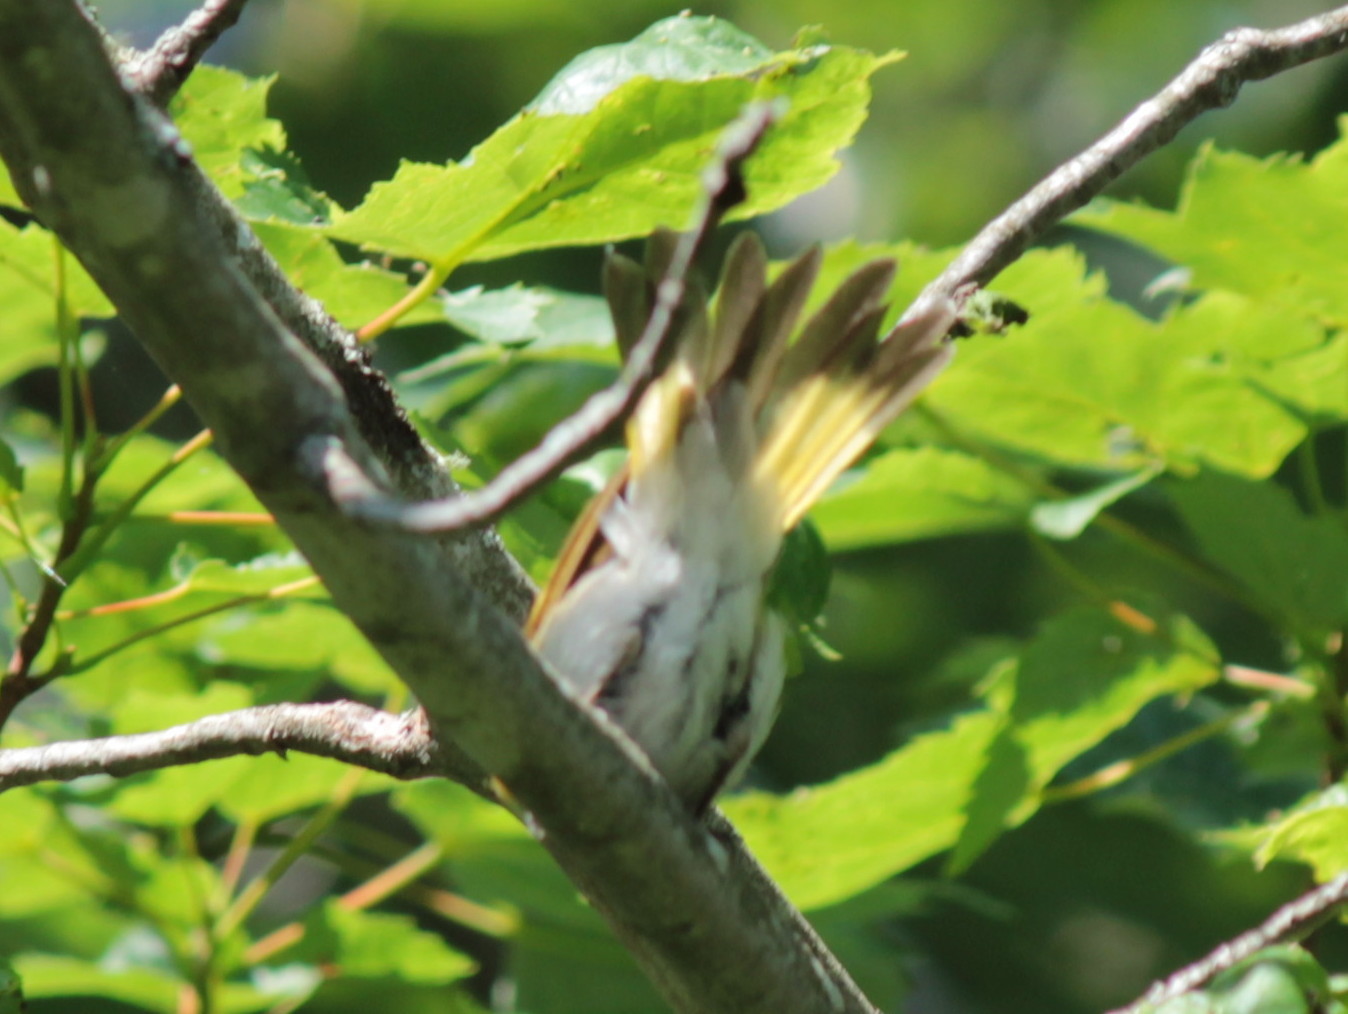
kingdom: Animalia
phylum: Chordata
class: Aves
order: Passeriformes
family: Parulidae
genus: Setophaga
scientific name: Setophaga ruticilla
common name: American redstart
